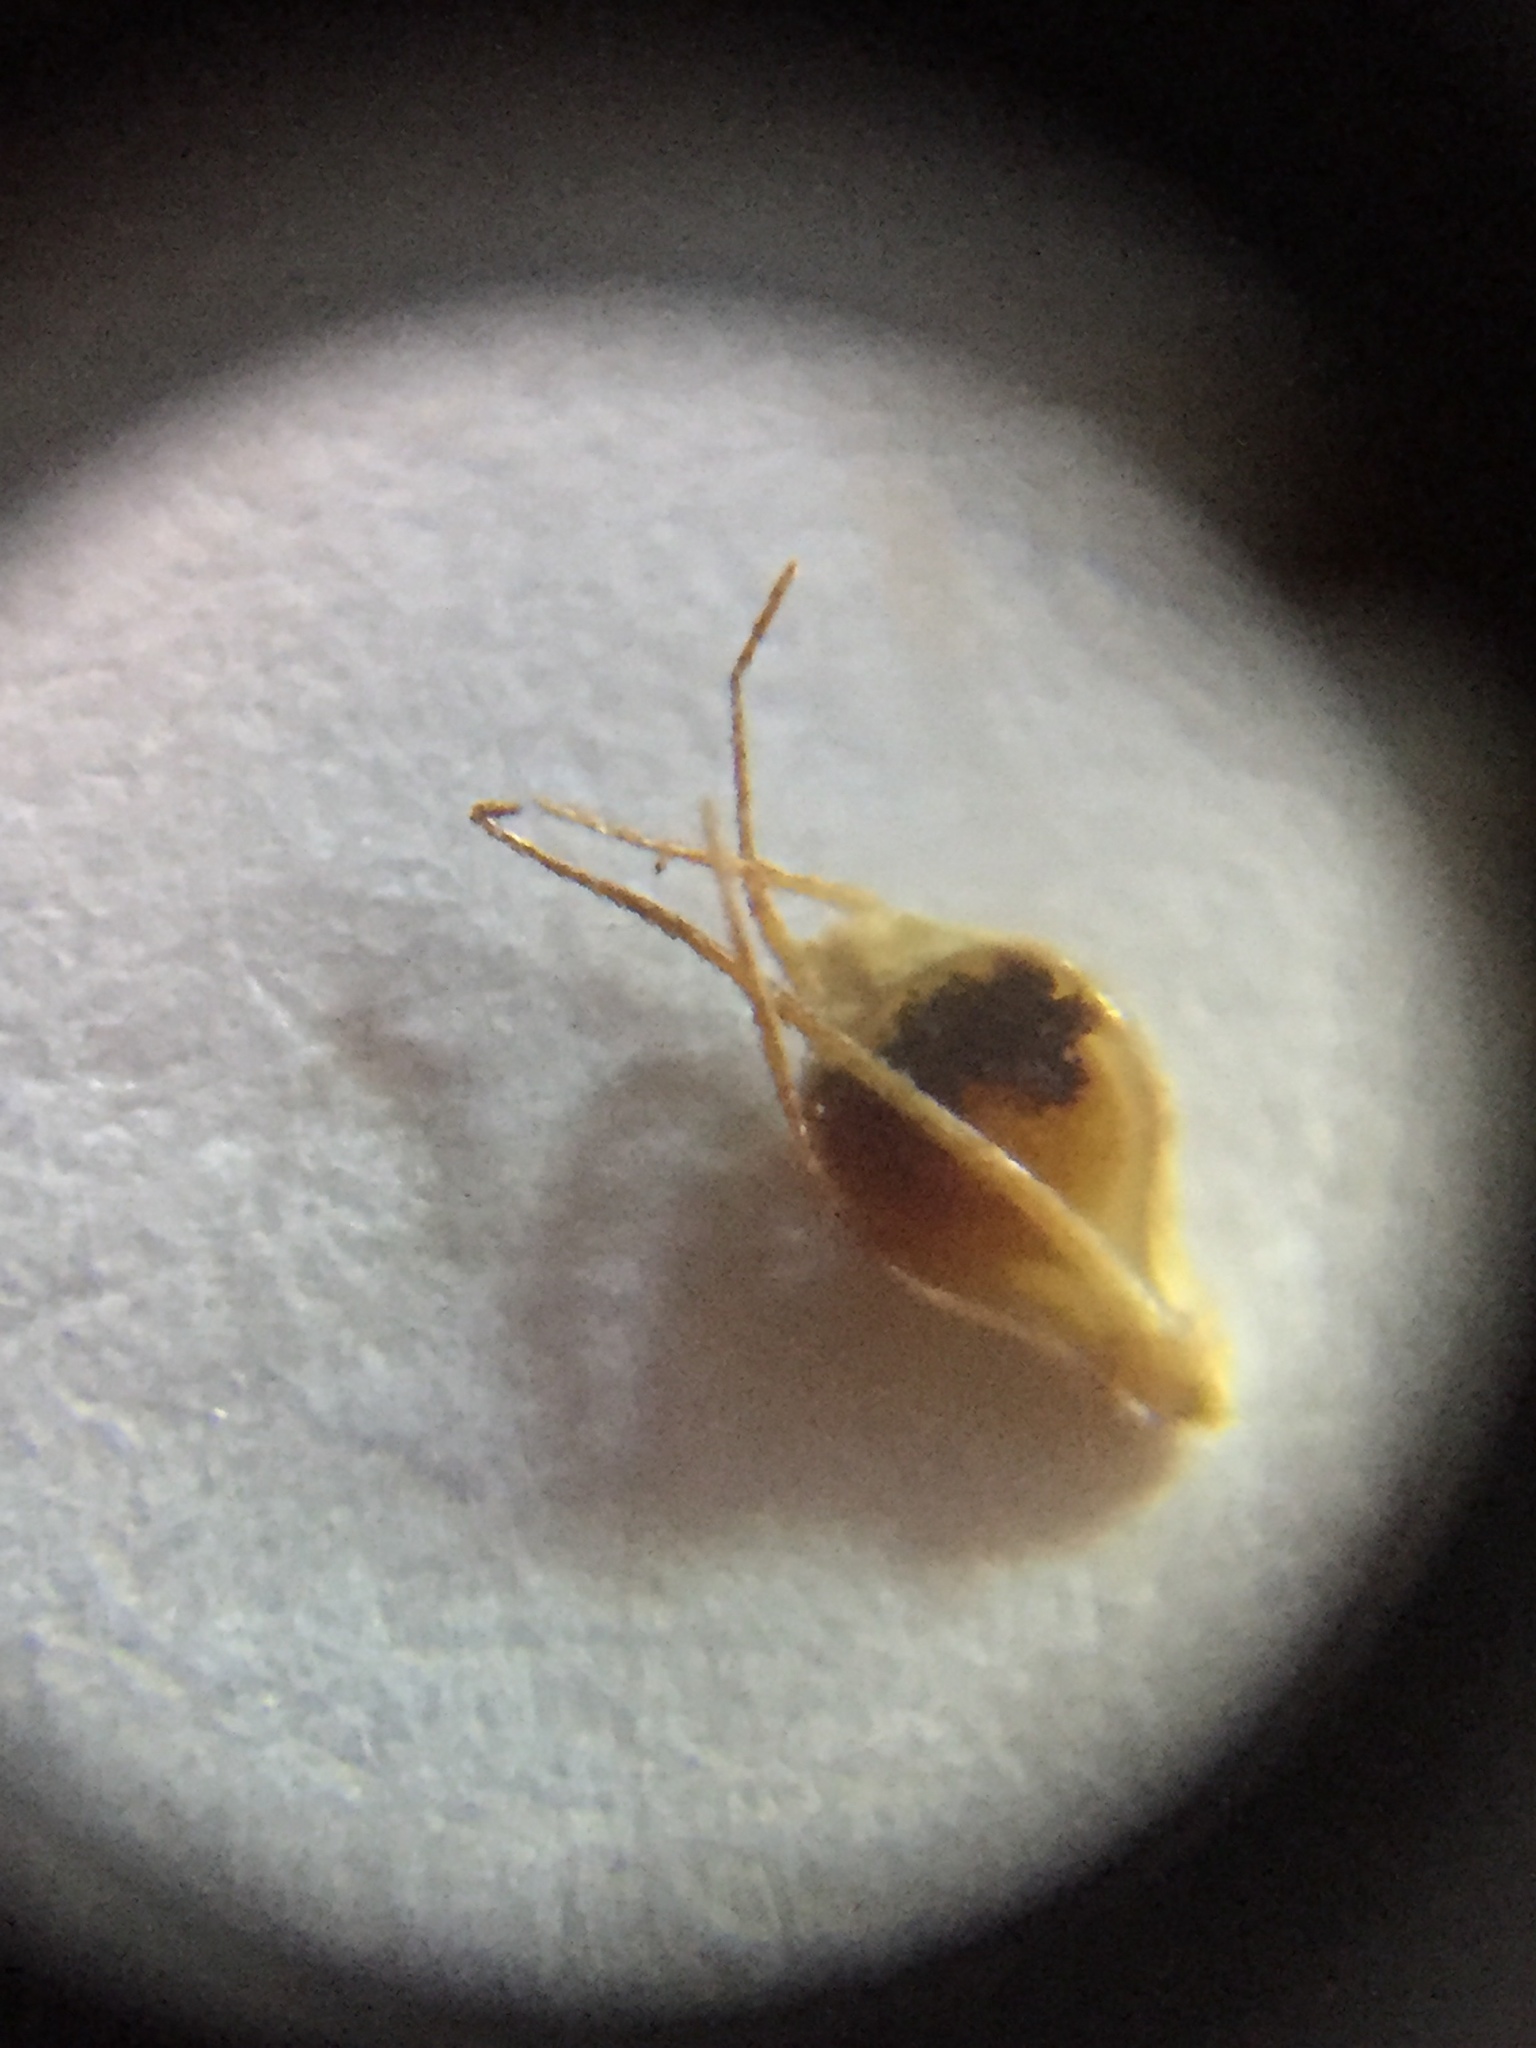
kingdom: Plantae
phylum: Tracheophyta
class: Liliopsida
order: Poales
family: Cyperaceae
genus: Rhynchospora
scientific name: Rhynchospora glomerata
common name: Cluster beak sedge
